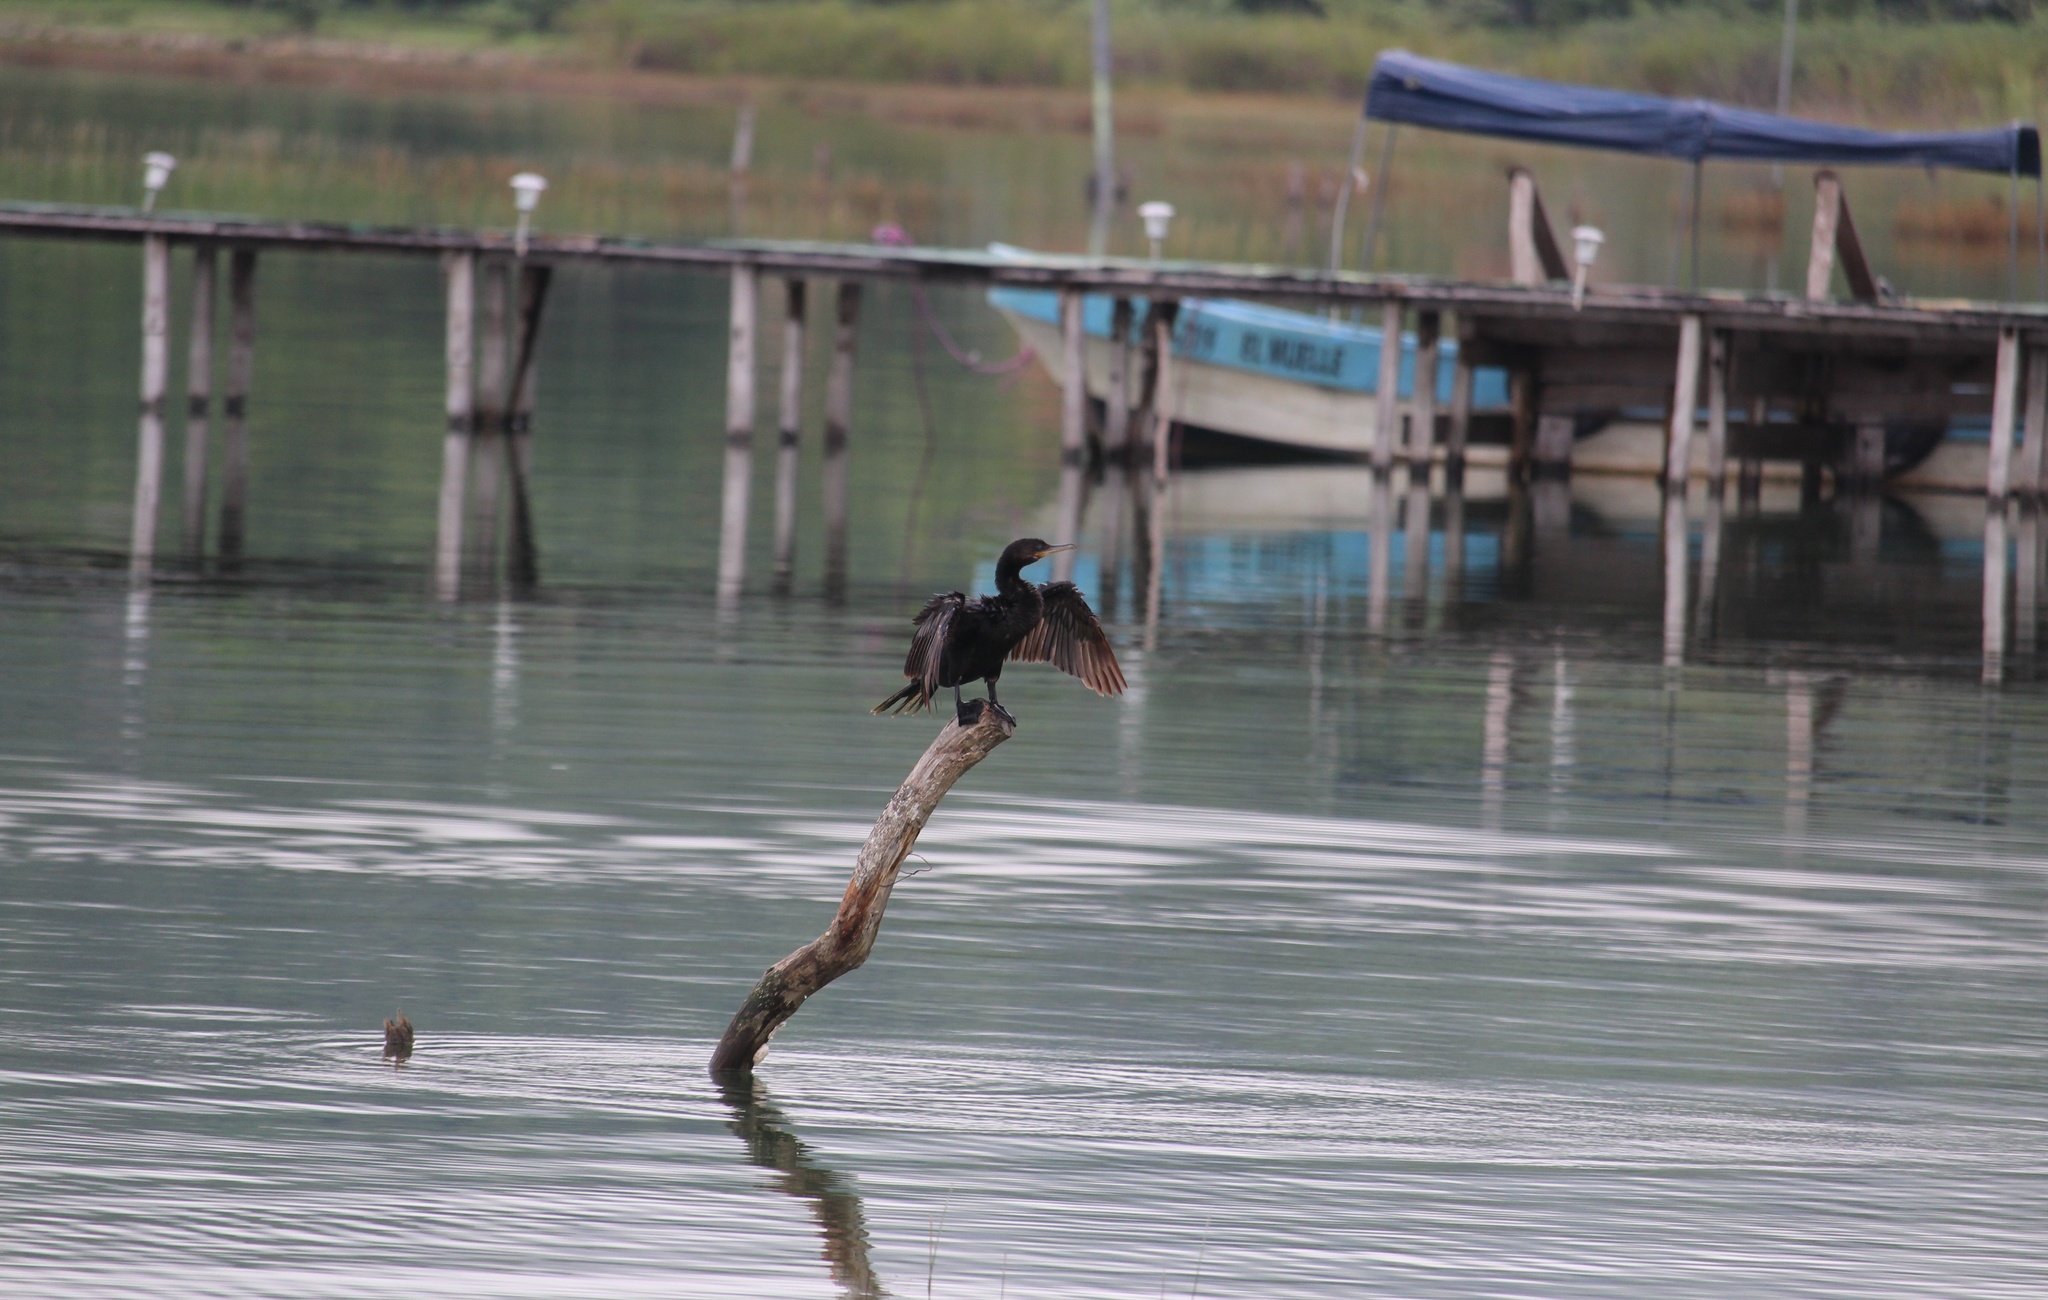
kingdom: Animalia
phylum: Chordata
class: Aves
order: Suliformes
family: Phalacrocoracidae
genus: Phalacrocorax
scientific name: Phalacrocorax brasilianus
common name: Neotropic cormorant
